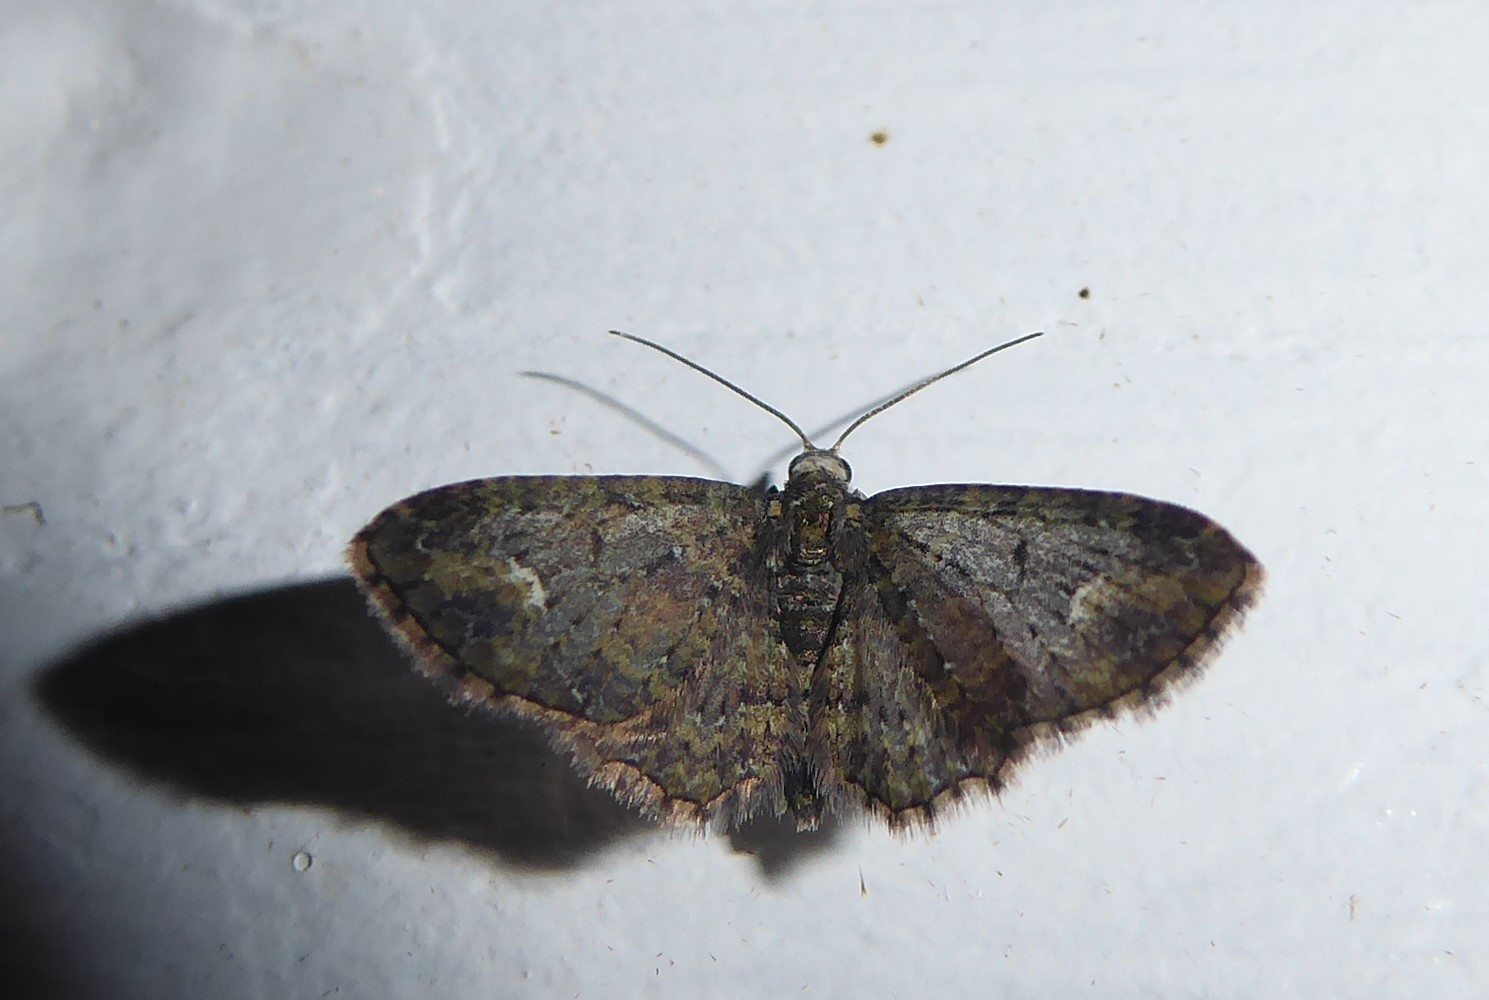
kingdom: Animalia
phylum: Arthropoda
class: Insecta
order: Lepidoptera
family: Geometridae
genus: Pasiphilodes
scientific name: Pasiphilodes testulata
